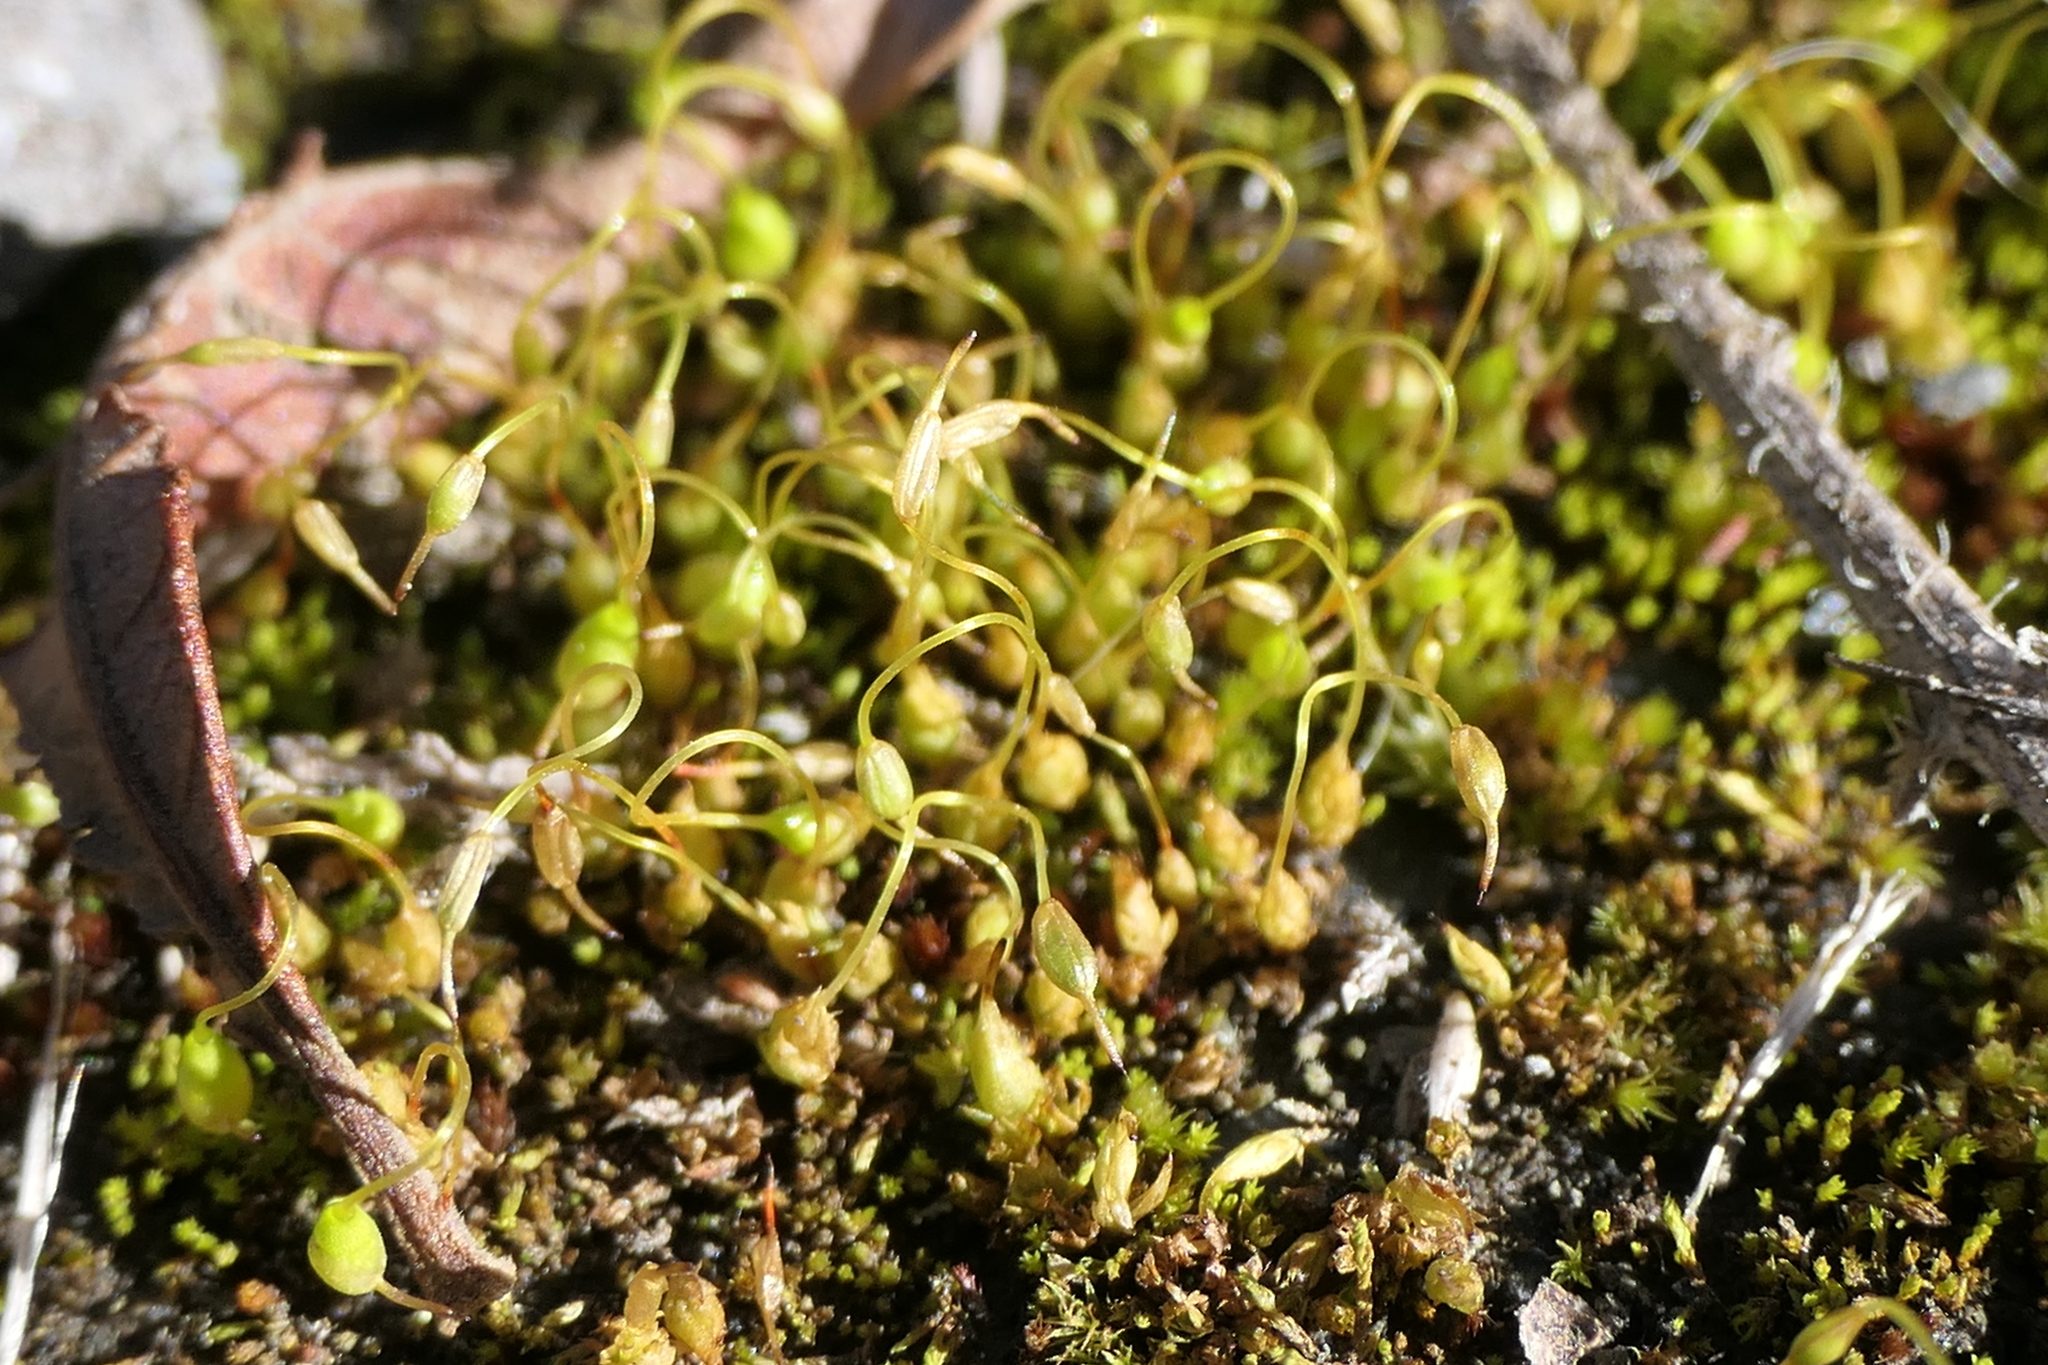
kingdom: Plantae
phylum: Bryophyta
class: Bryopsida
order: Funariales
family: Funariaceae
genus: Funaria
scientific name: Funaria hygrometrica
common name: Common cord moss
